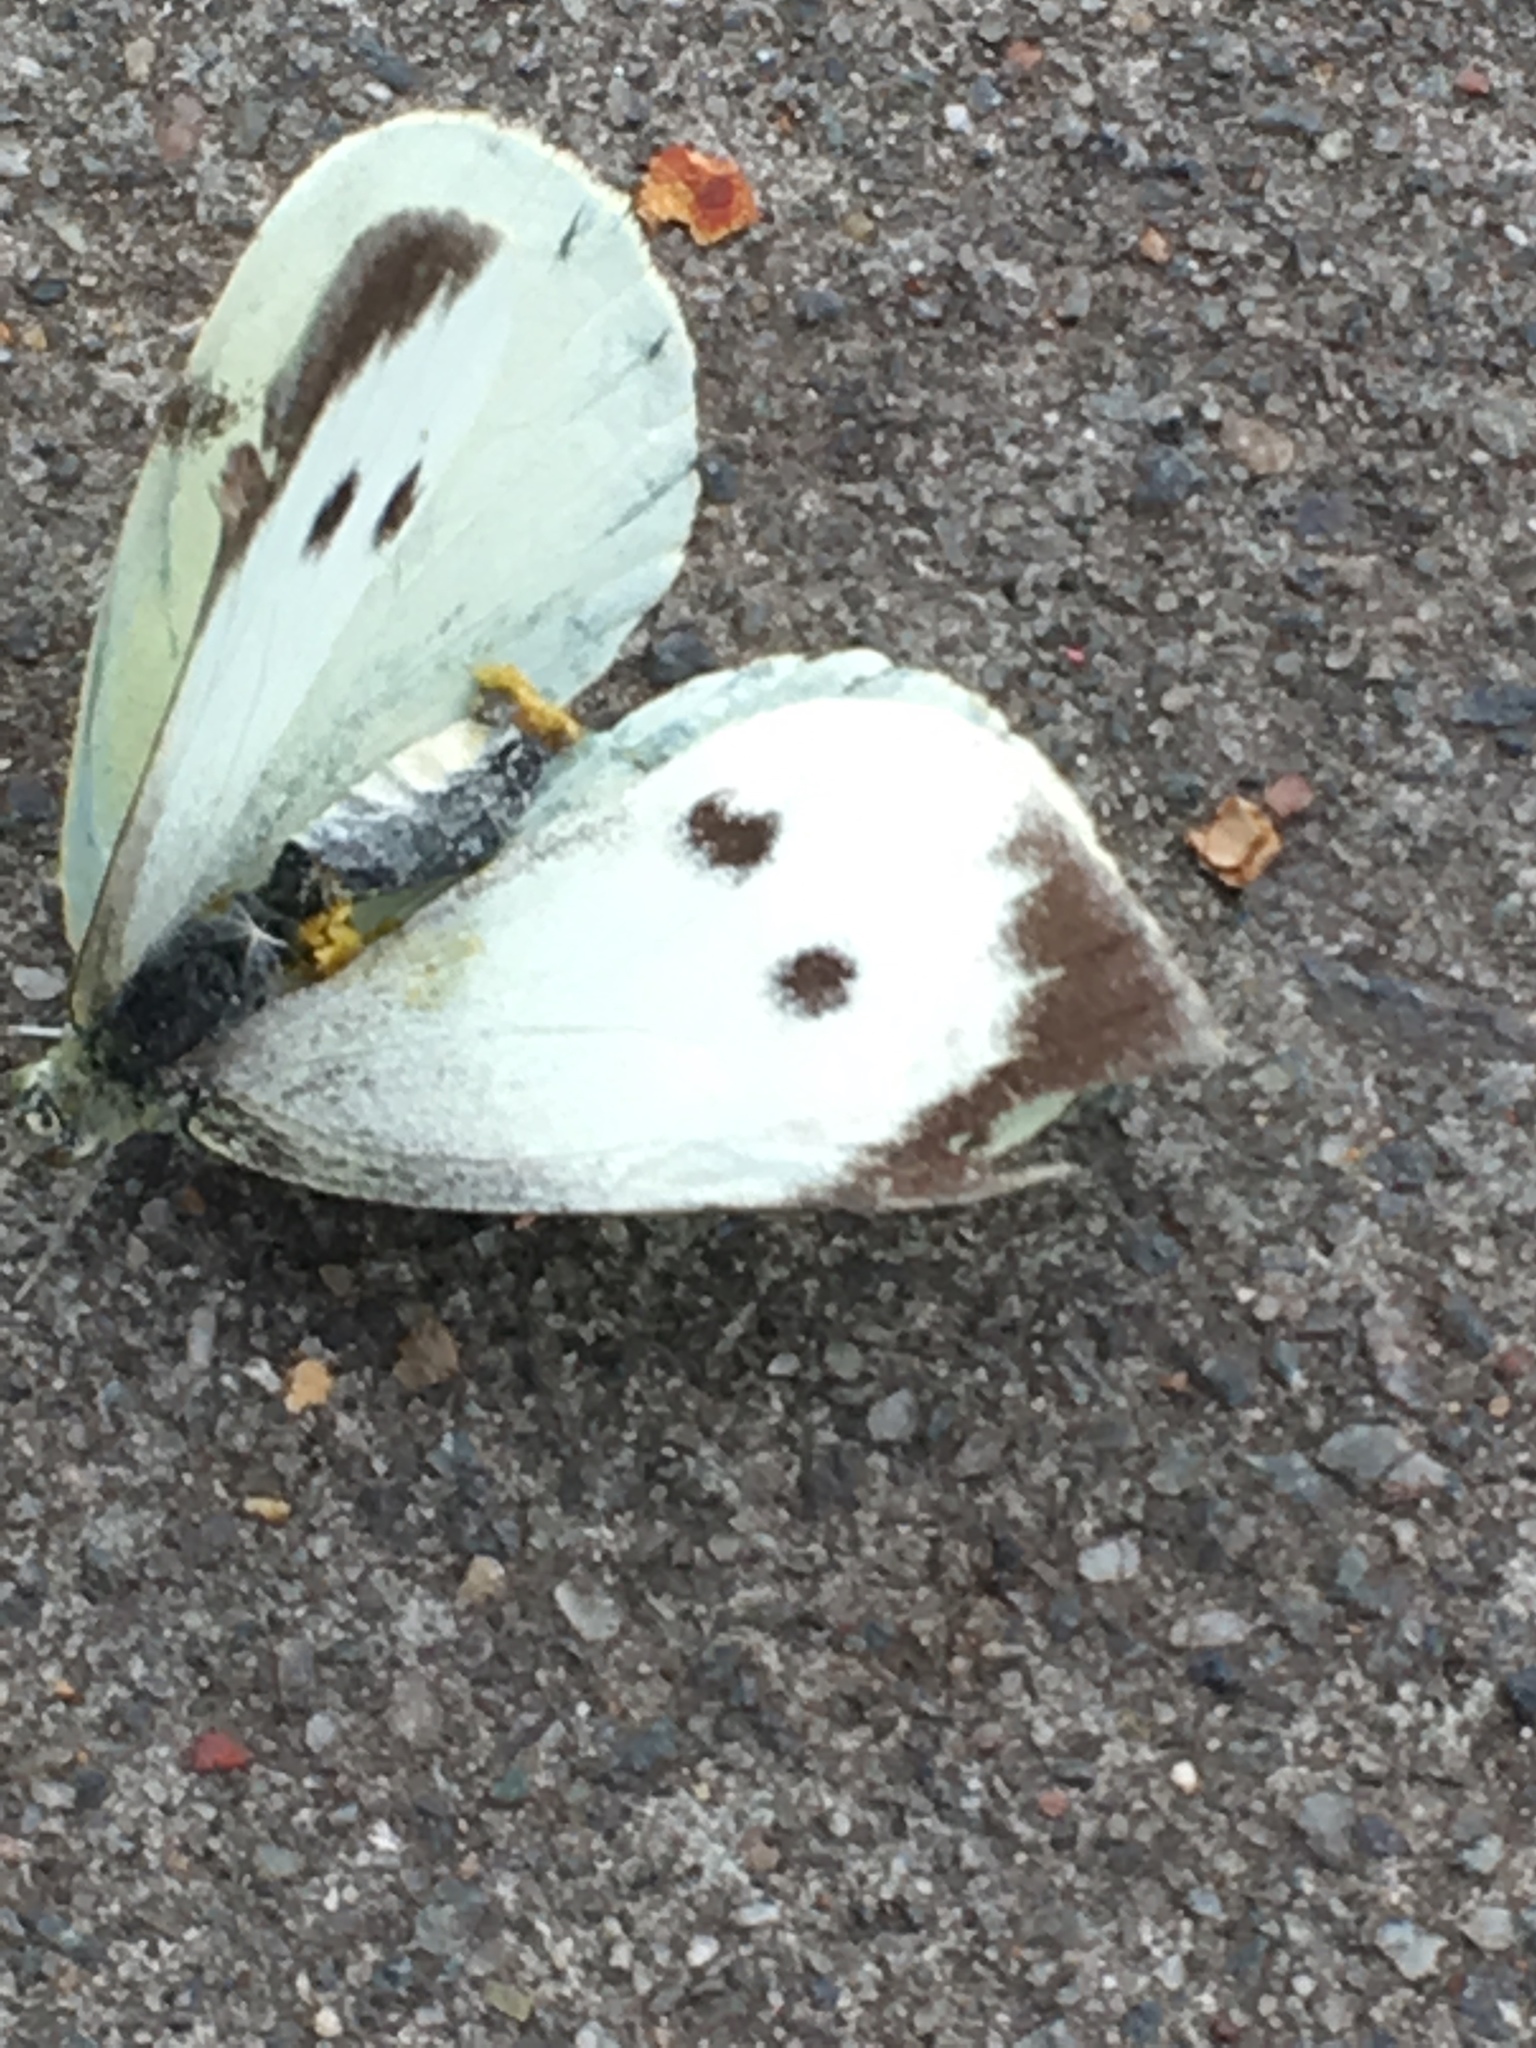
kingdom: Animalia
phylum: Arthropoda
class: Insecta
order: Lepidoptera
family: Pieridae
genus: Pieris
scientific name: Pieris brassicae
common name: Large white
